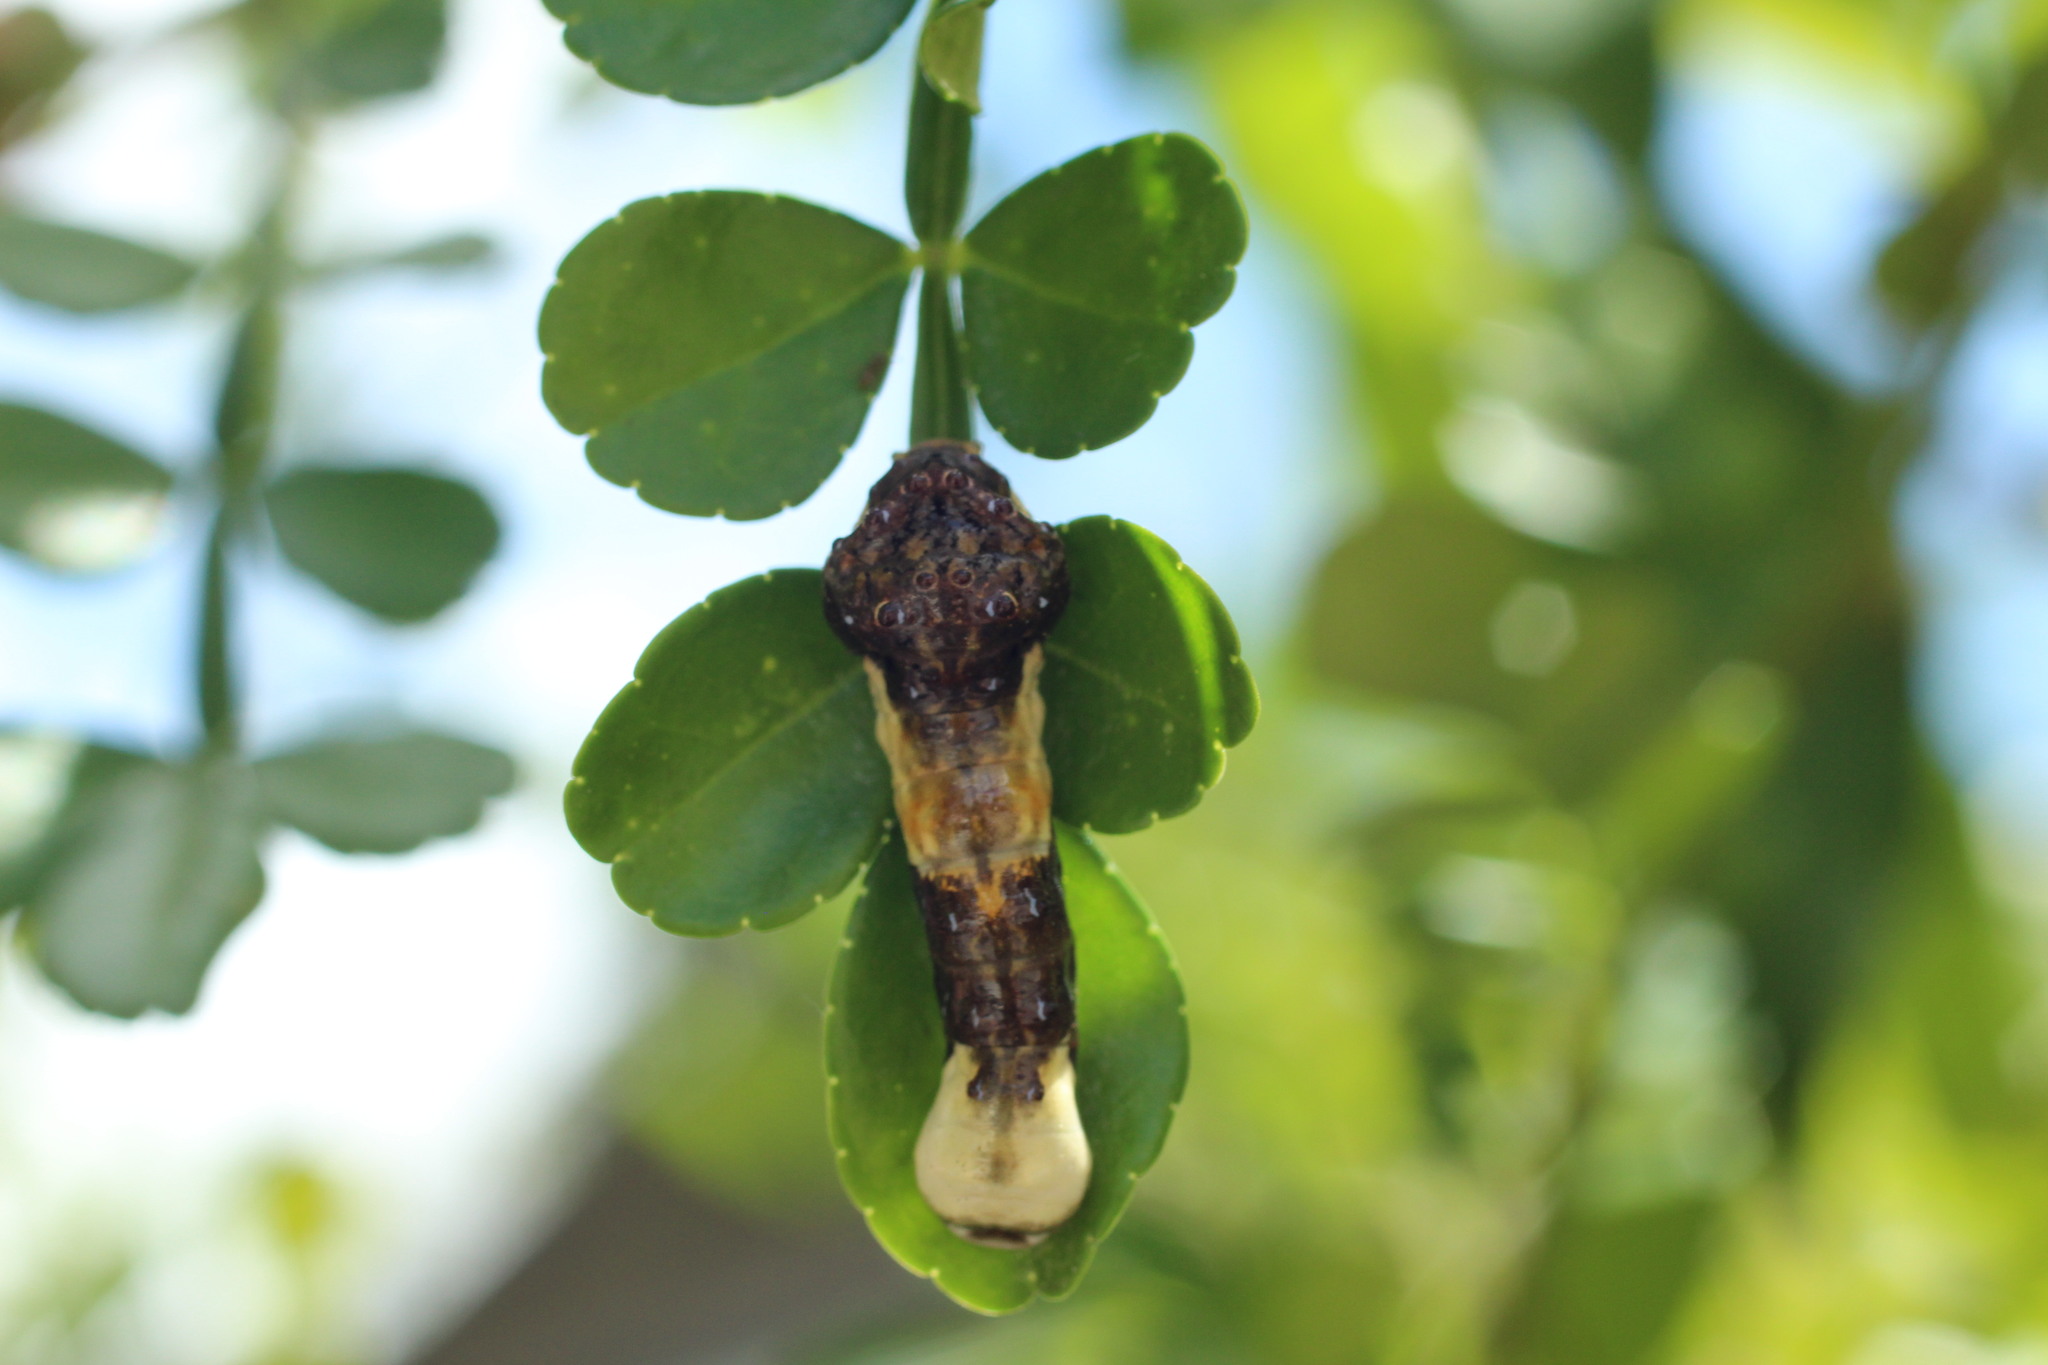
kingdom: Animalia
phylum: Arthropoda
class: Insecta
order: Lepidoptera
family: Papilionidae
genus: Papilio
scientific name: Papilio cresphontes
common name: Giant swallowtail
